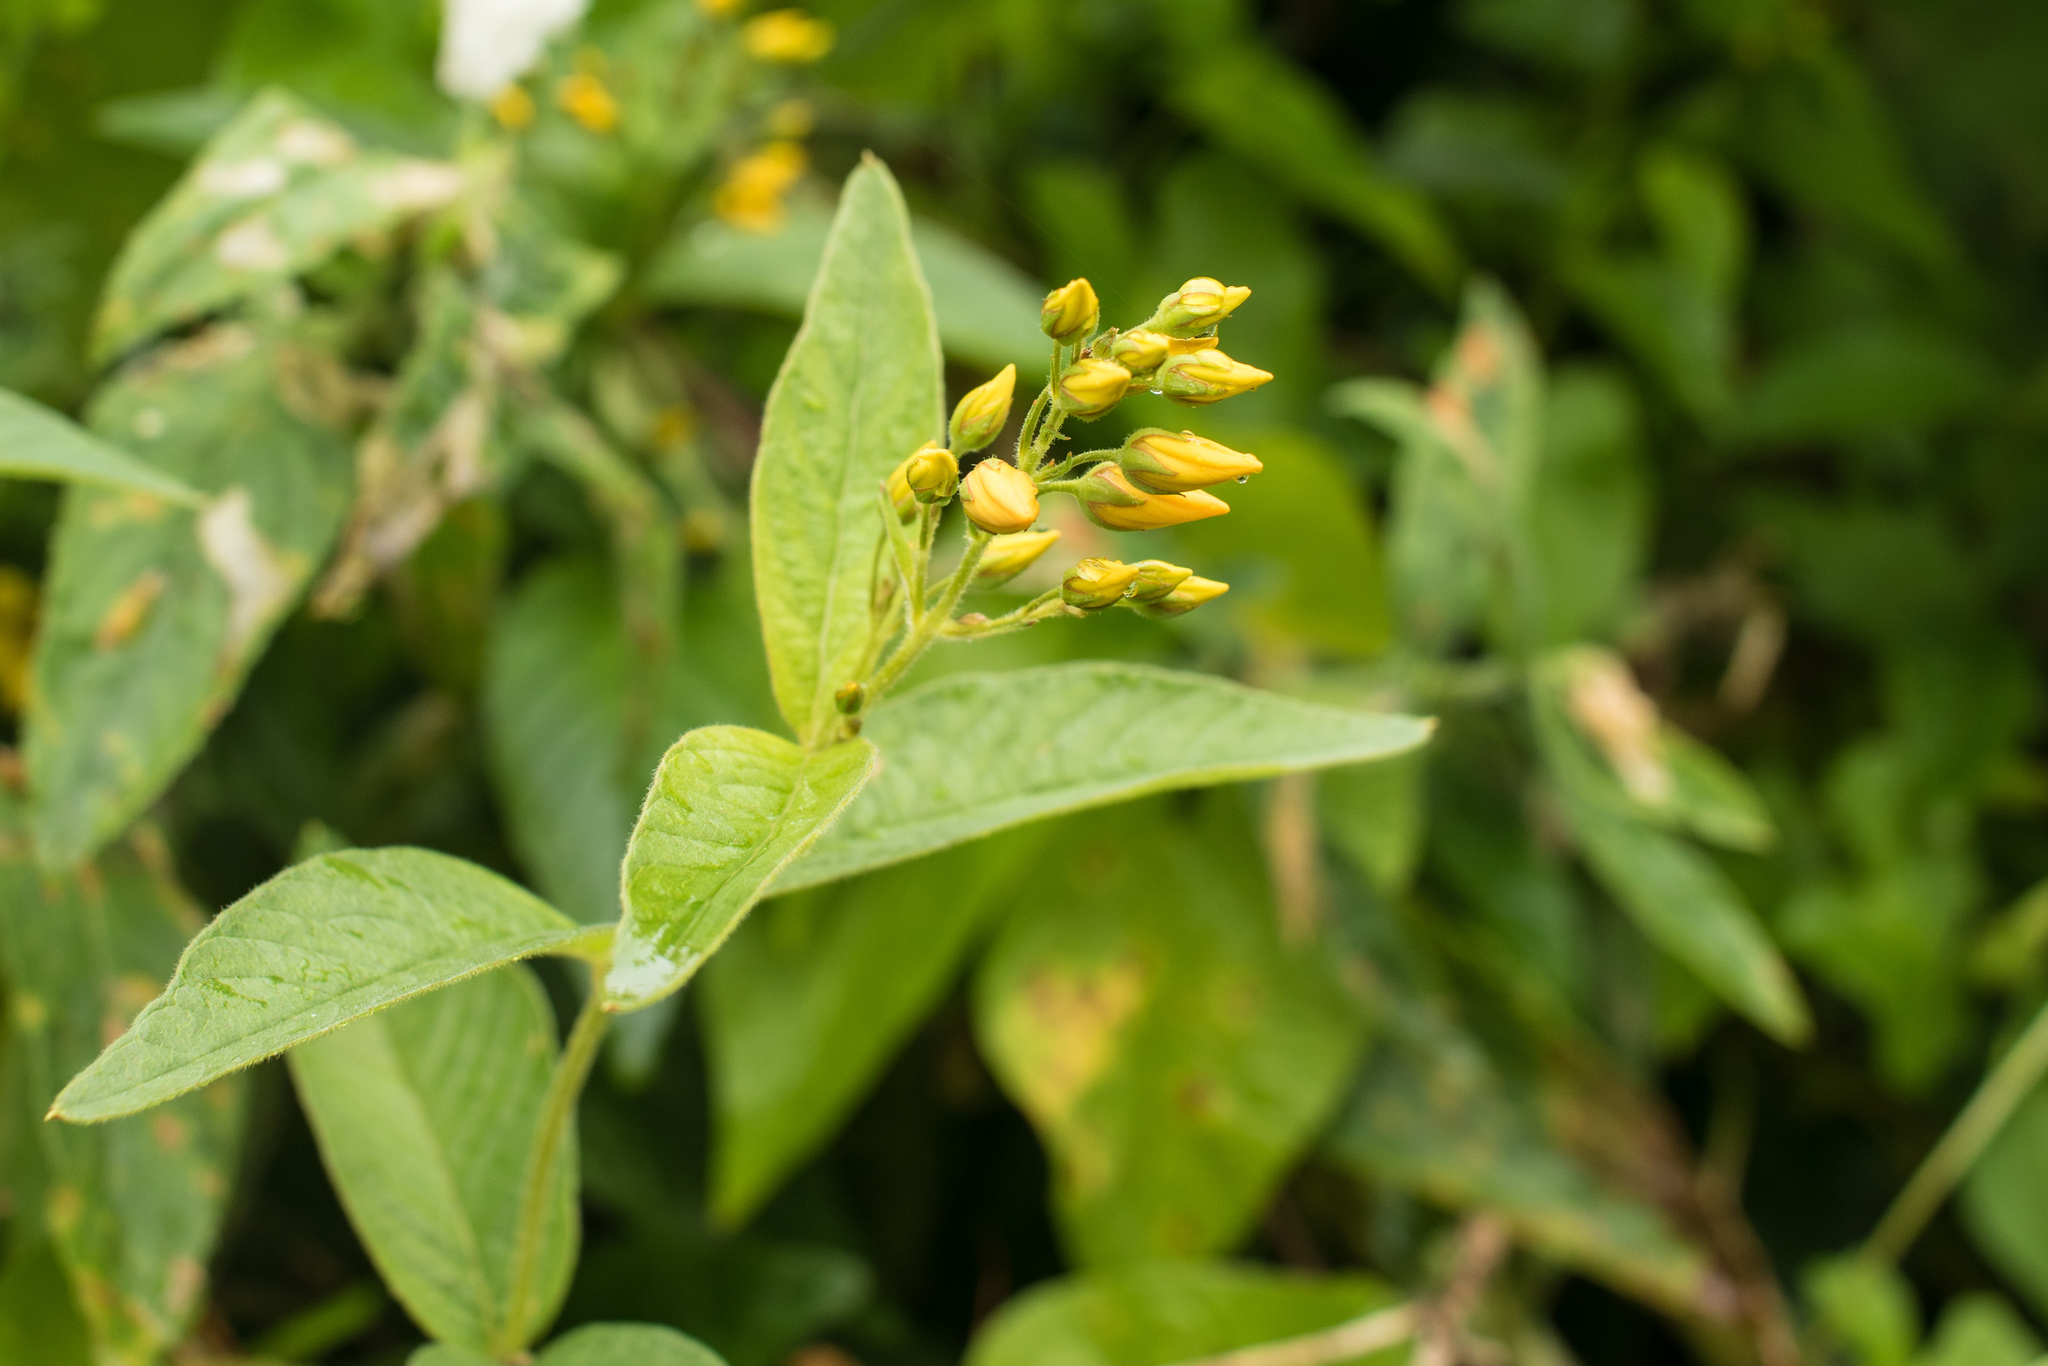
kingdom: Plantae
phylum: Tracheophyta
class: Magnoliopsida
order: Ericales
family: Primulaceae
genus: Lysimachia
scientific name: Lysimachia vulgaris
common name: Yellow loosestrife
